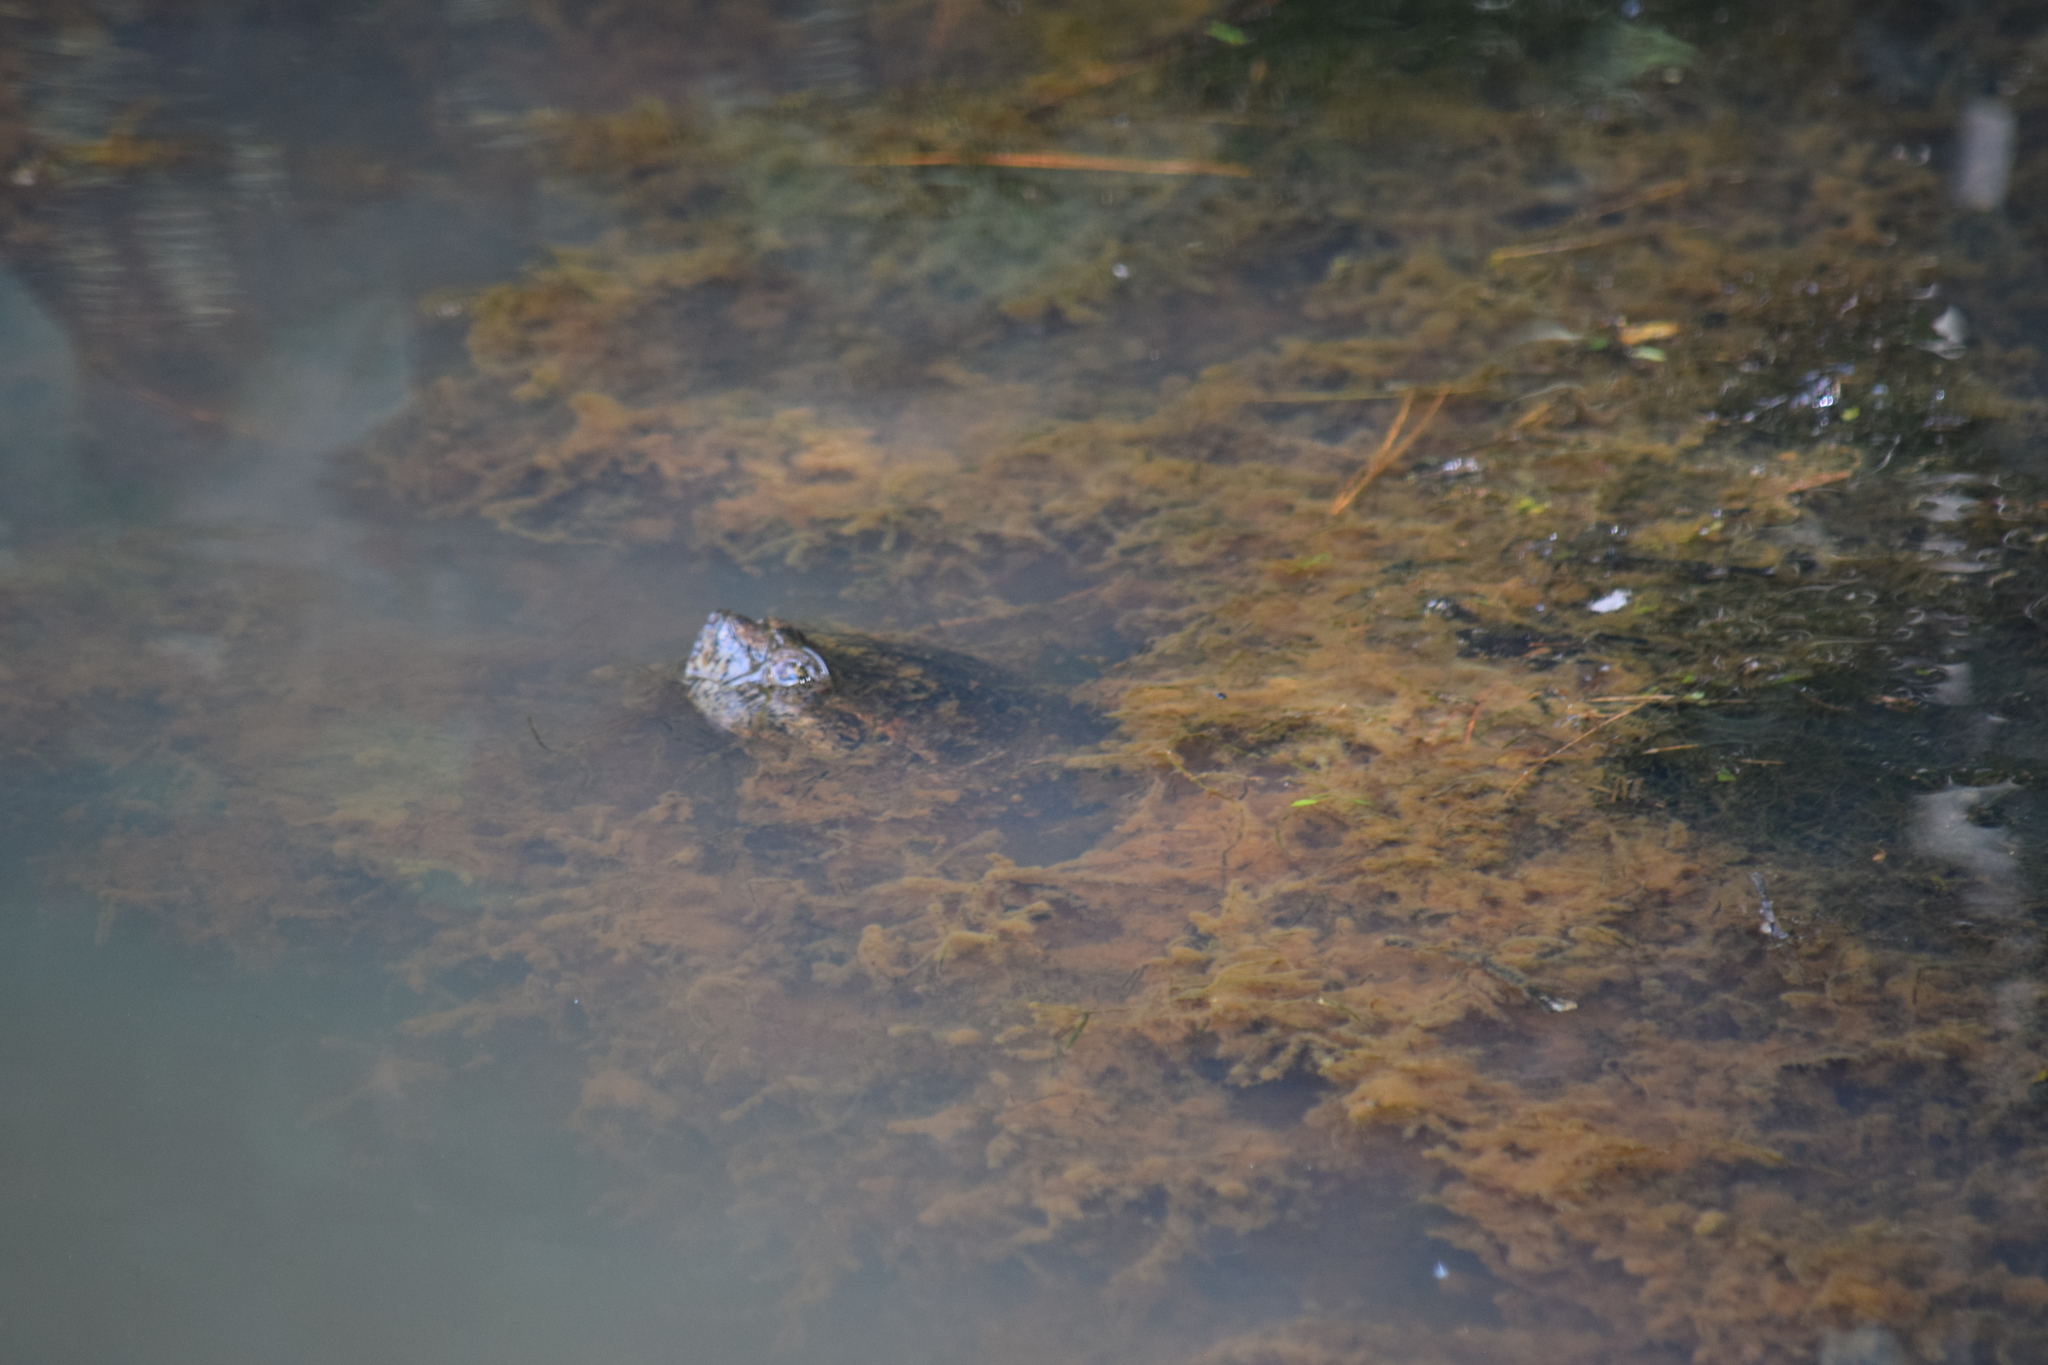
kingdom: Animalia
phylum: Chordata
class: Testudines
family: Chelydridae
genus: Chelydra
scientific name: Chelydra serpentina
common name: Common snapping turtle
